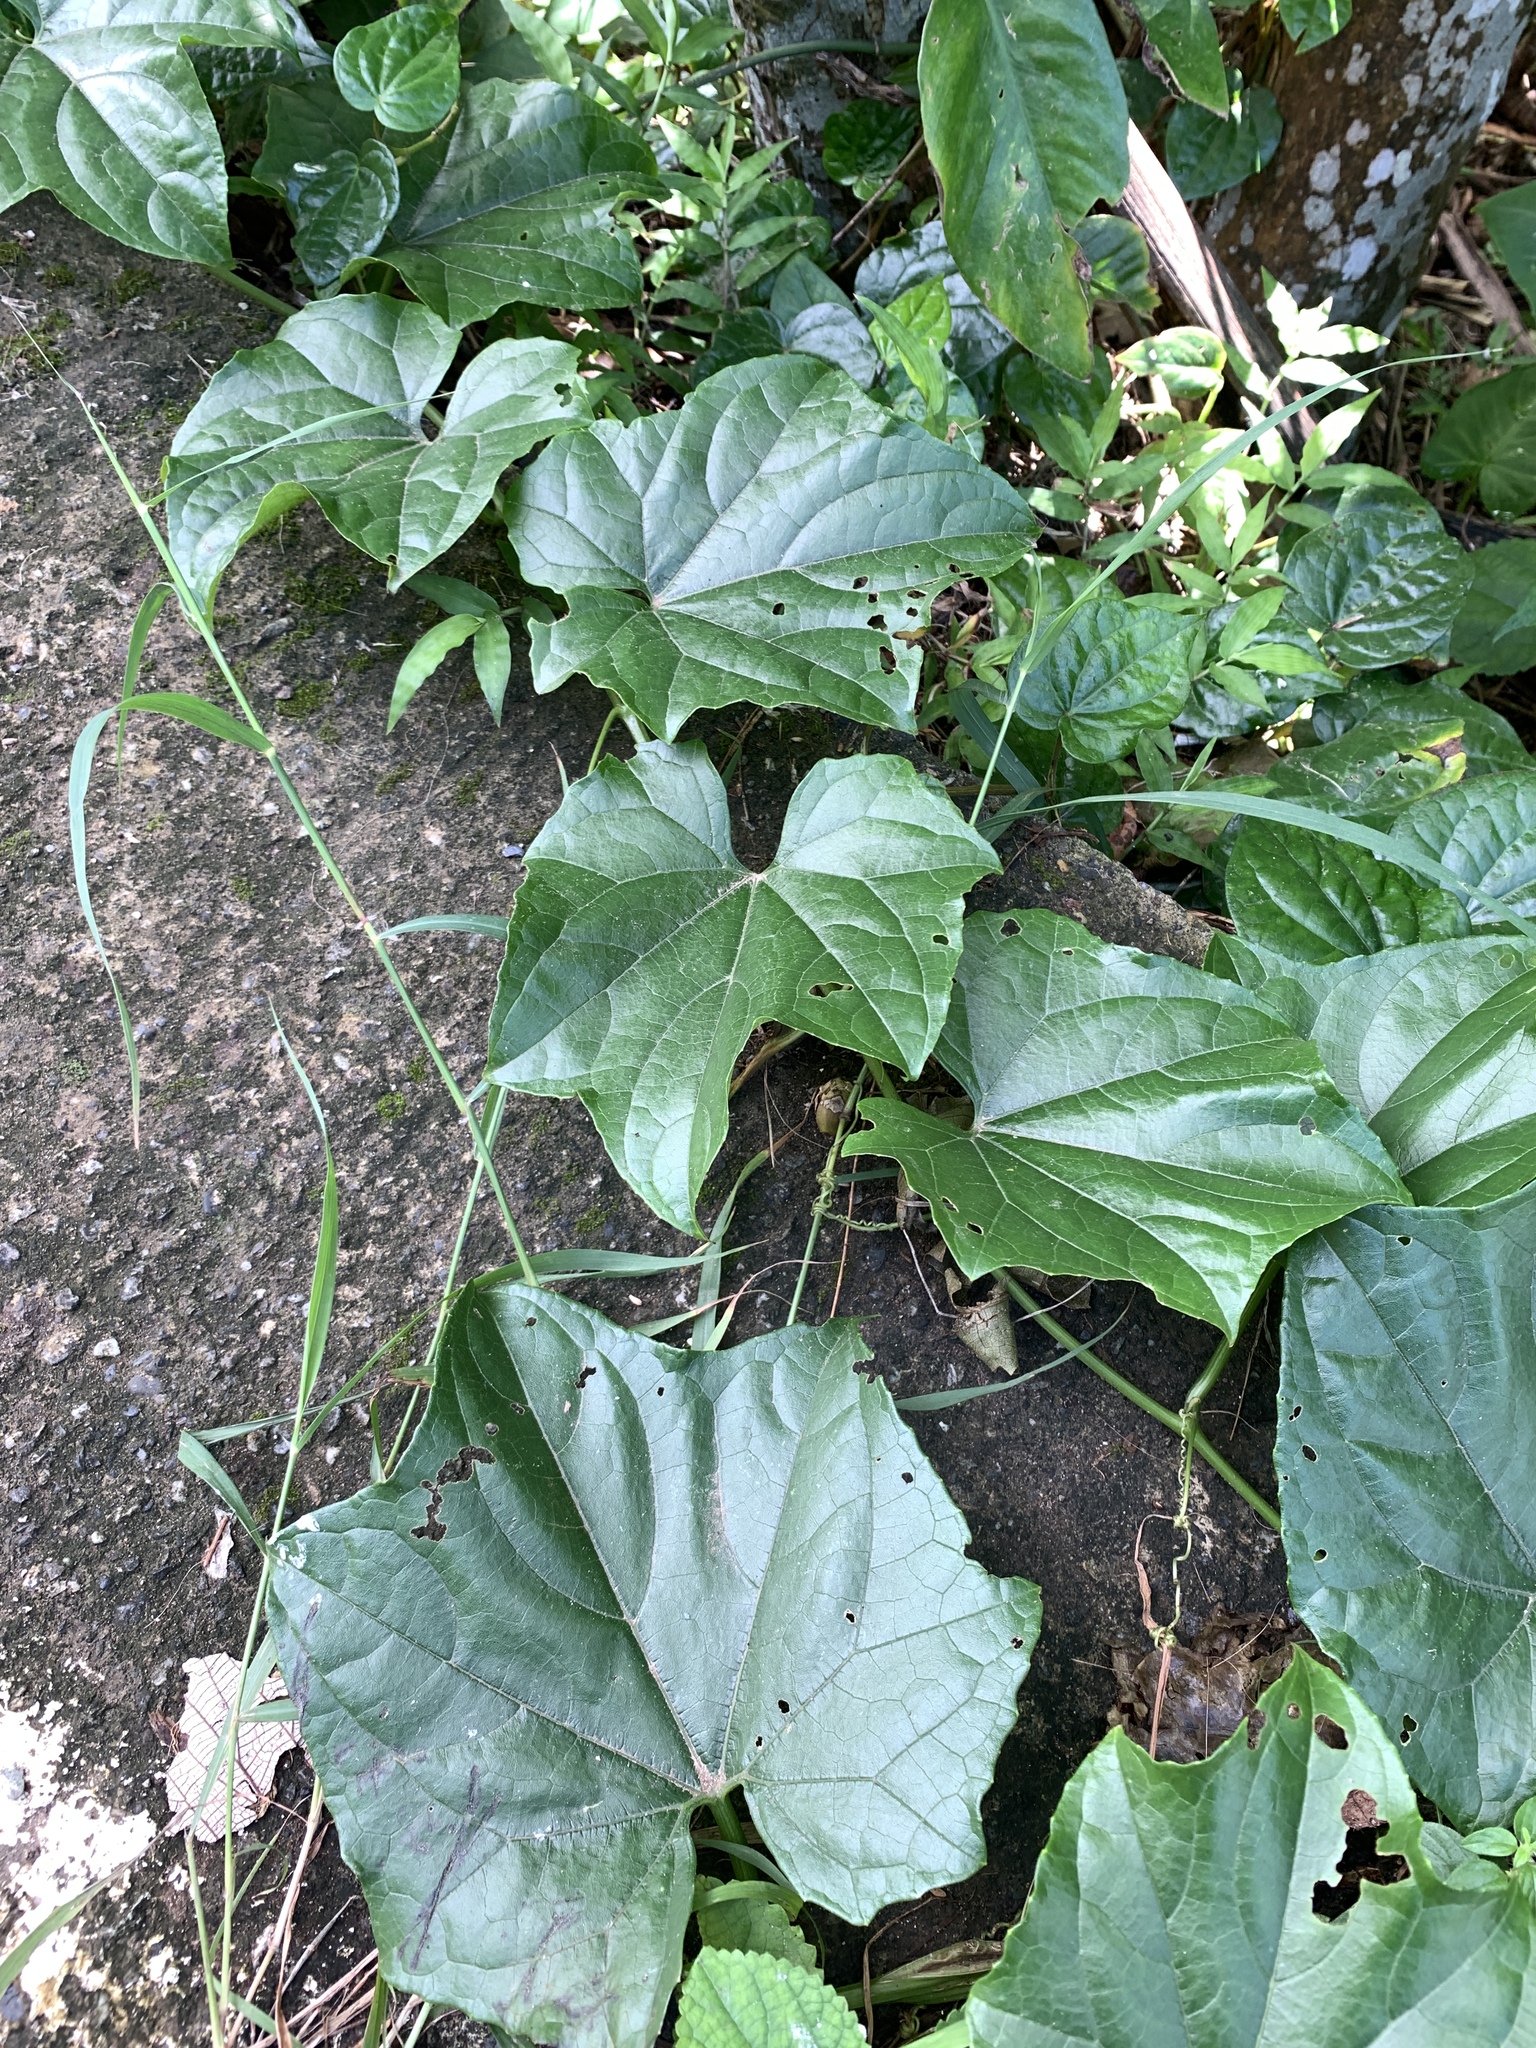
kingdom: Plantae
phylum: Tracheophyta
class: Magnoliopsida
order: Cucurbitales
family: Cucurbitaceae
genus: Trichosanthes
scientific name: Trichosanthes quinquangulata
